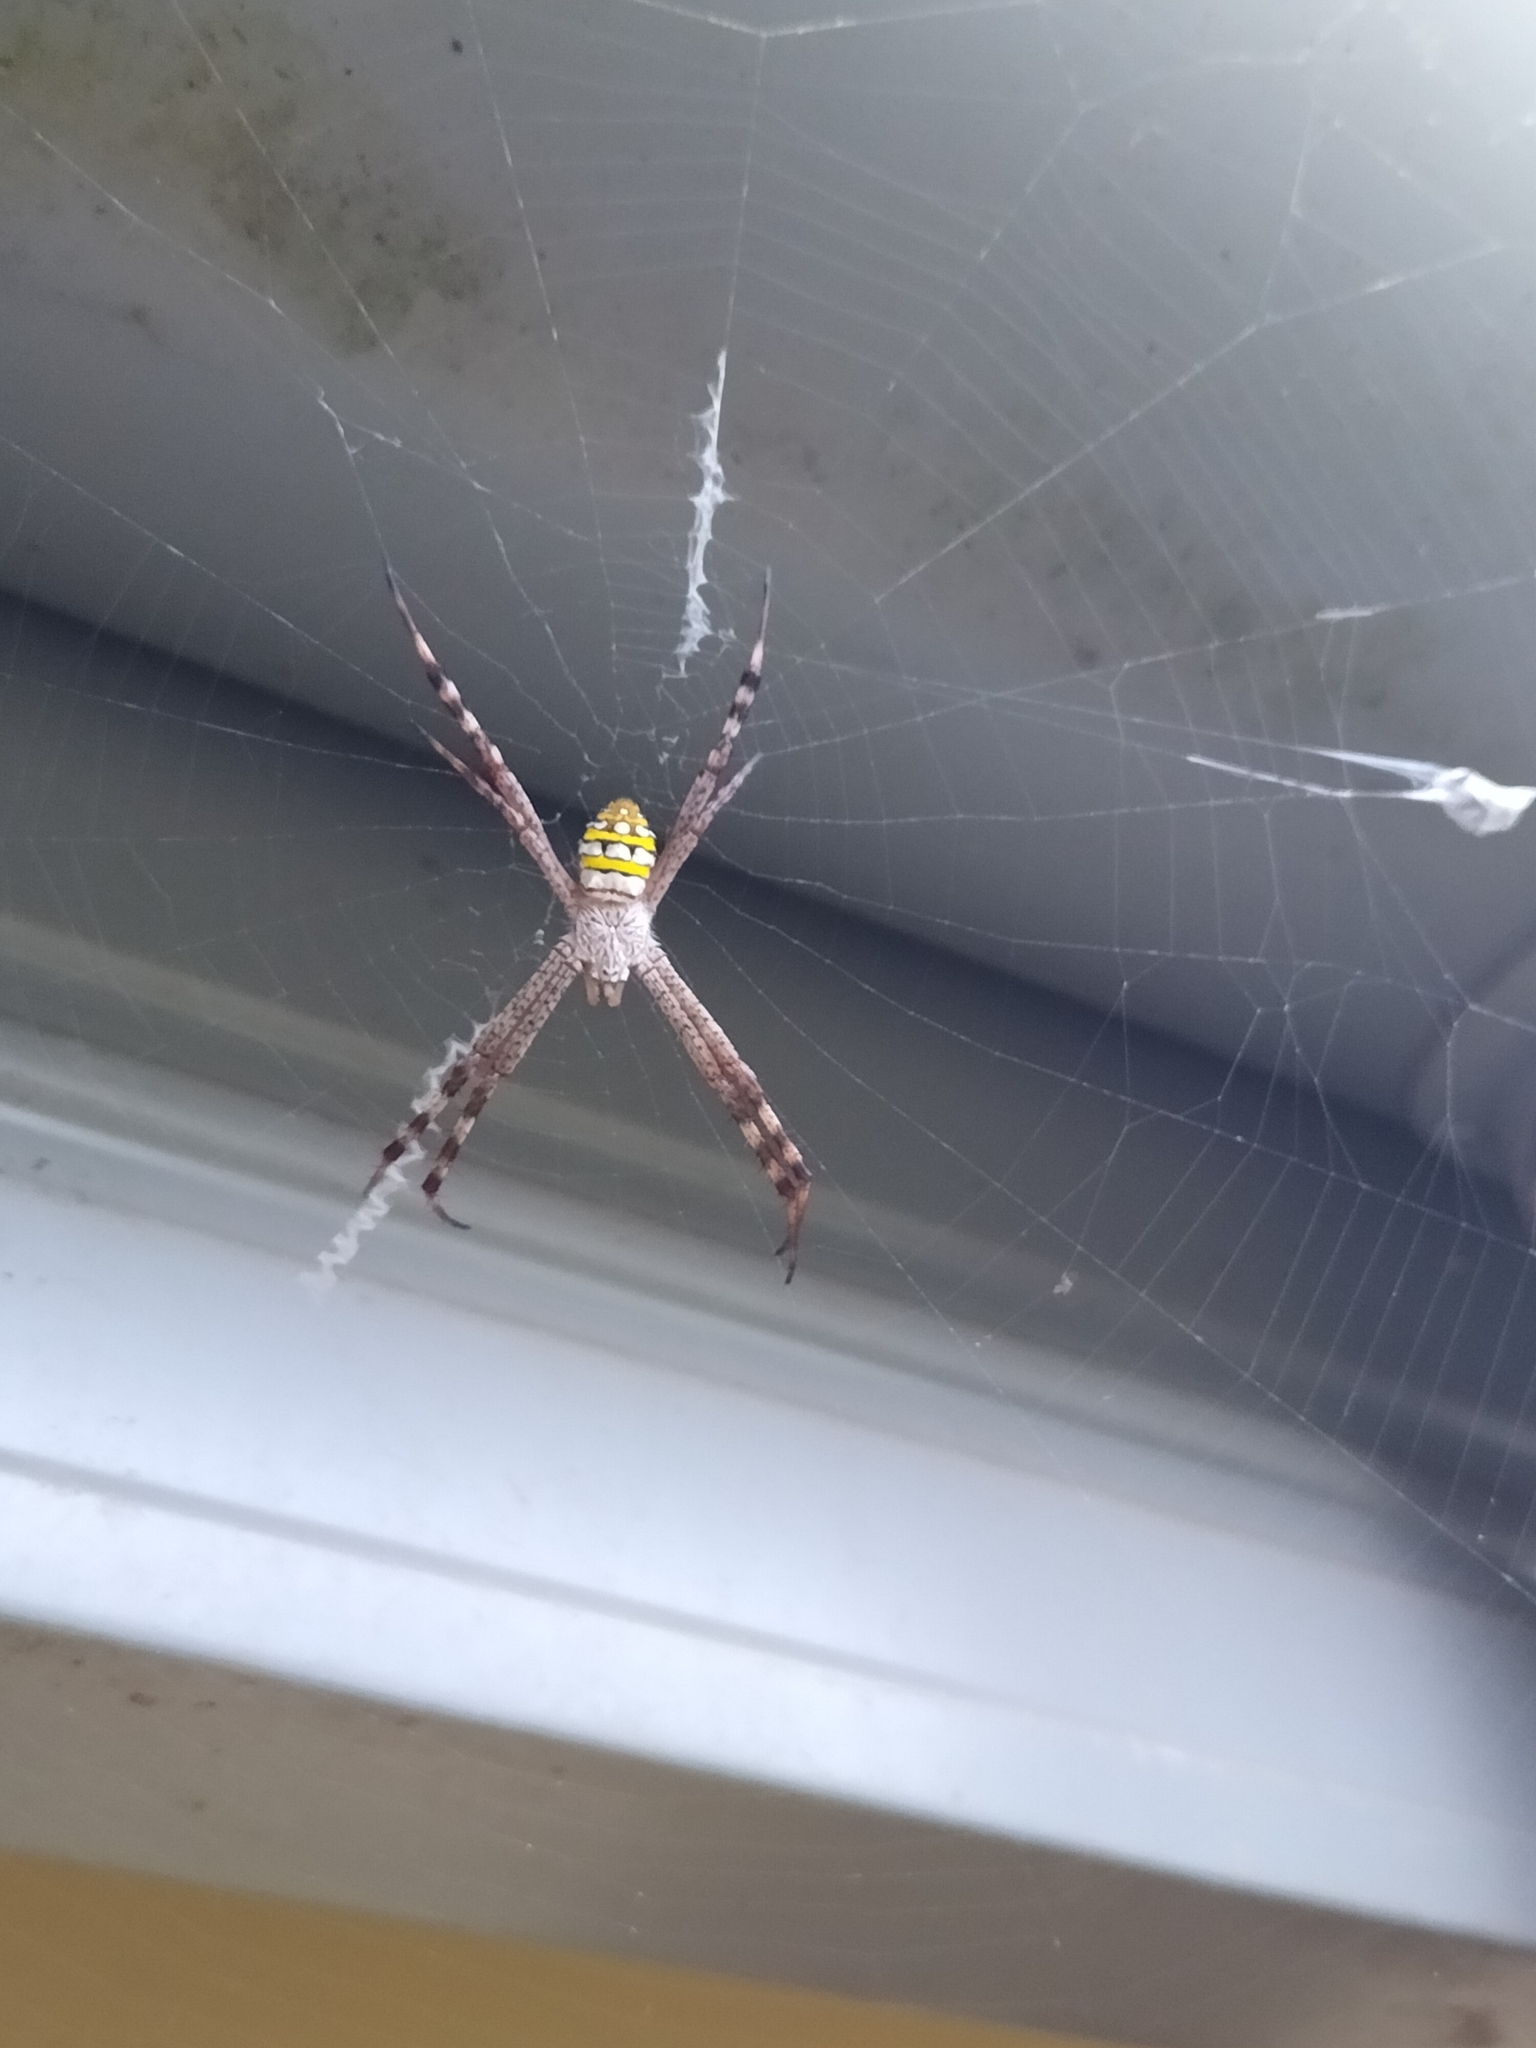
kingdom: Animalia
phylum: Arthropoda
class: Arachnida
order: Araneae
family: Araneidae
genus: Argiope
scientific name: Argiope picta
